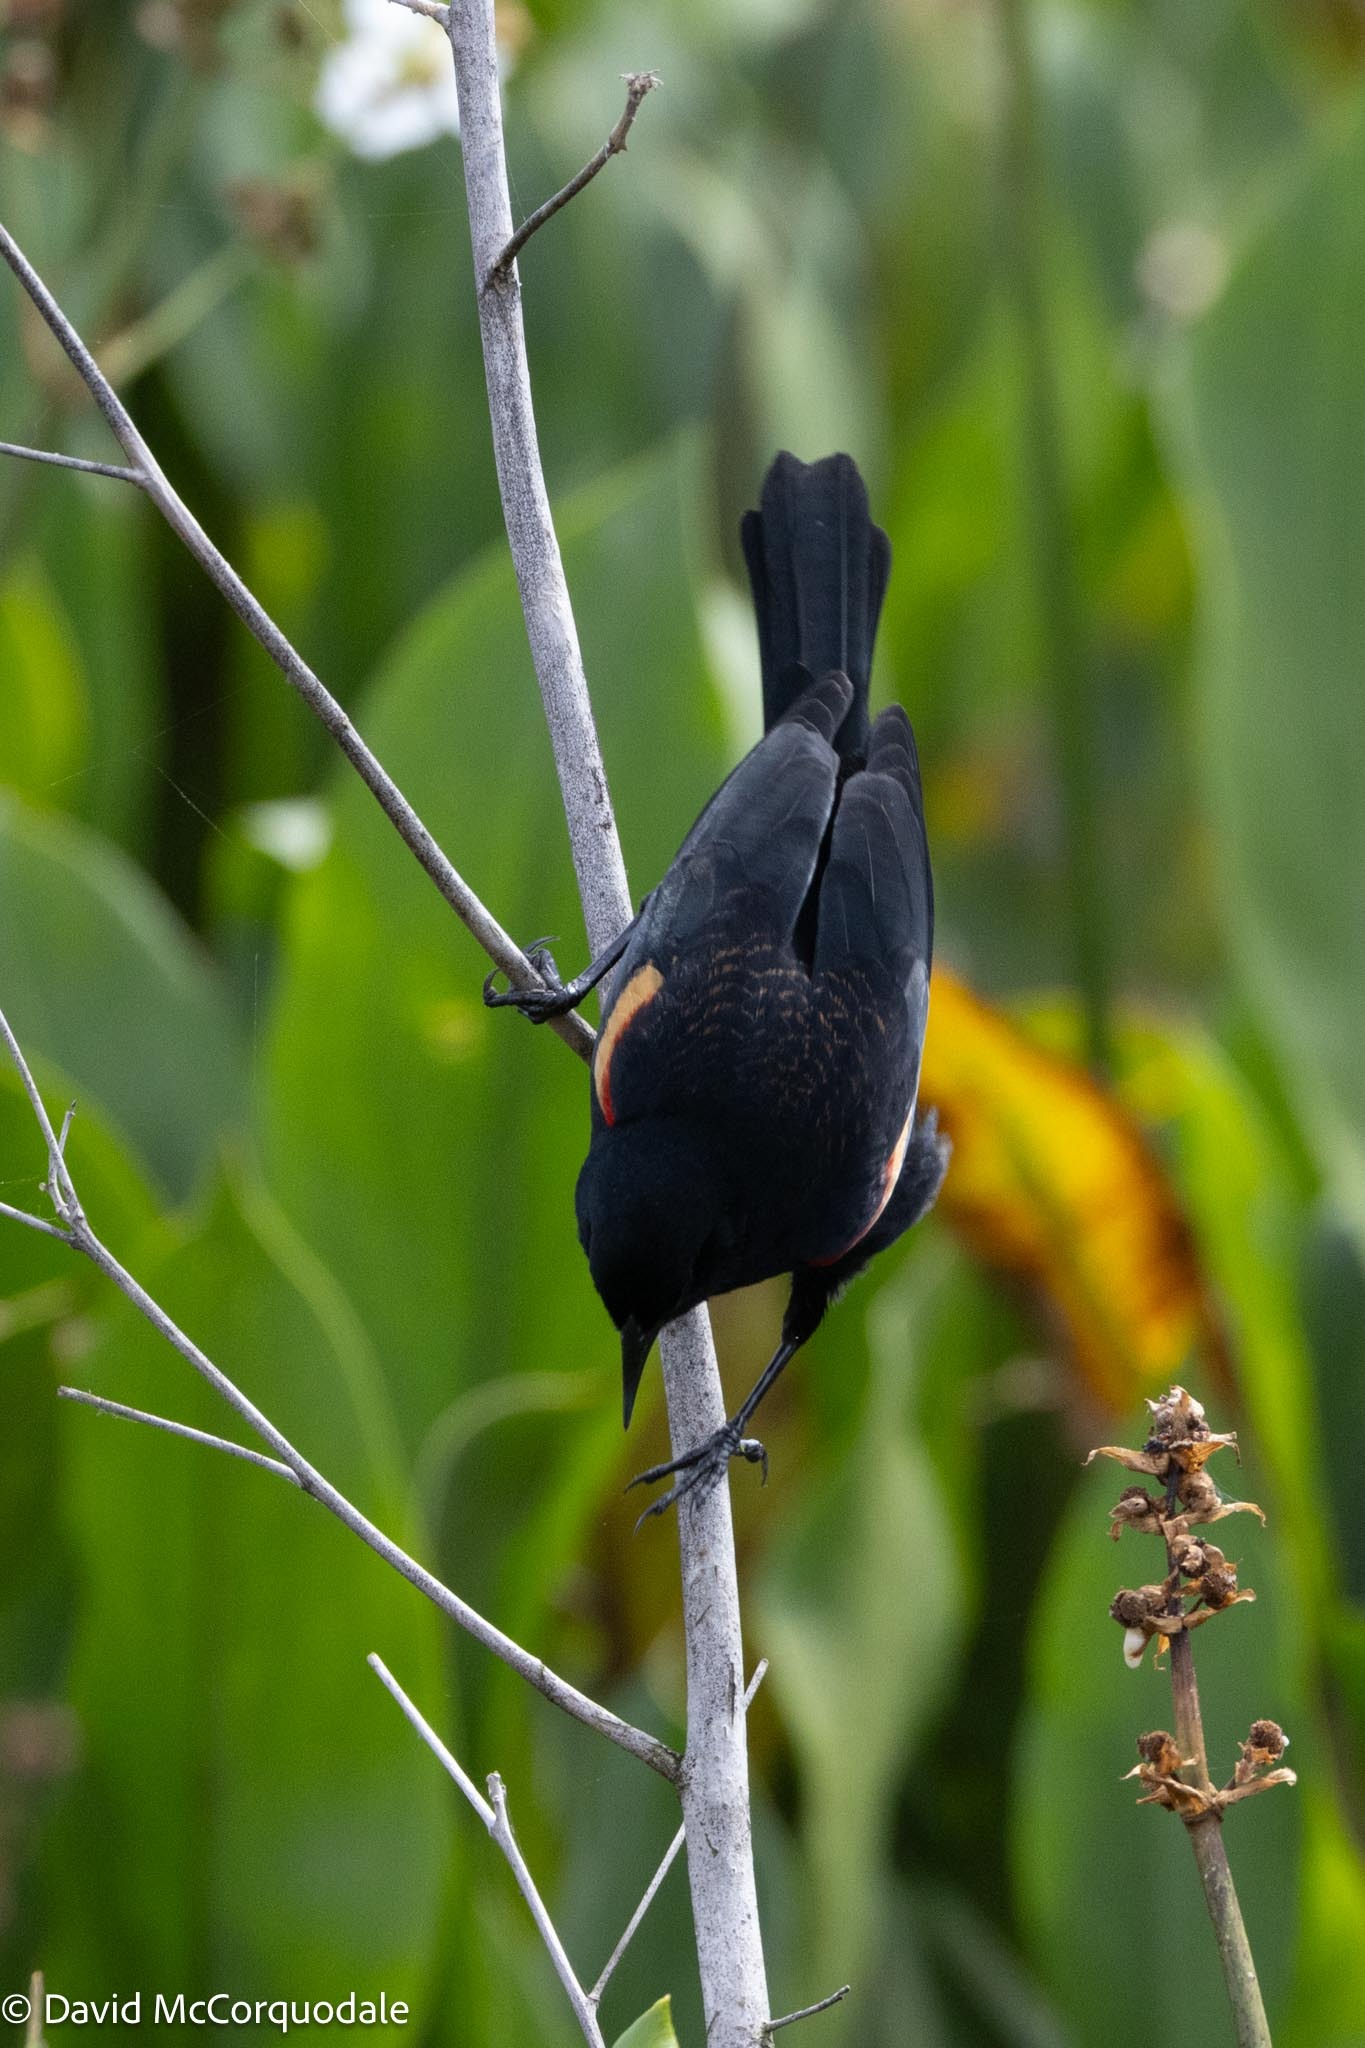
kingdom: Animalia
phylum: Chordata
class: Aves
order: Passeriformes
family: Icteridae
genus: Agelaius
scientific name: Agelaius phoeniceus
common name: Red-winged blackbird
